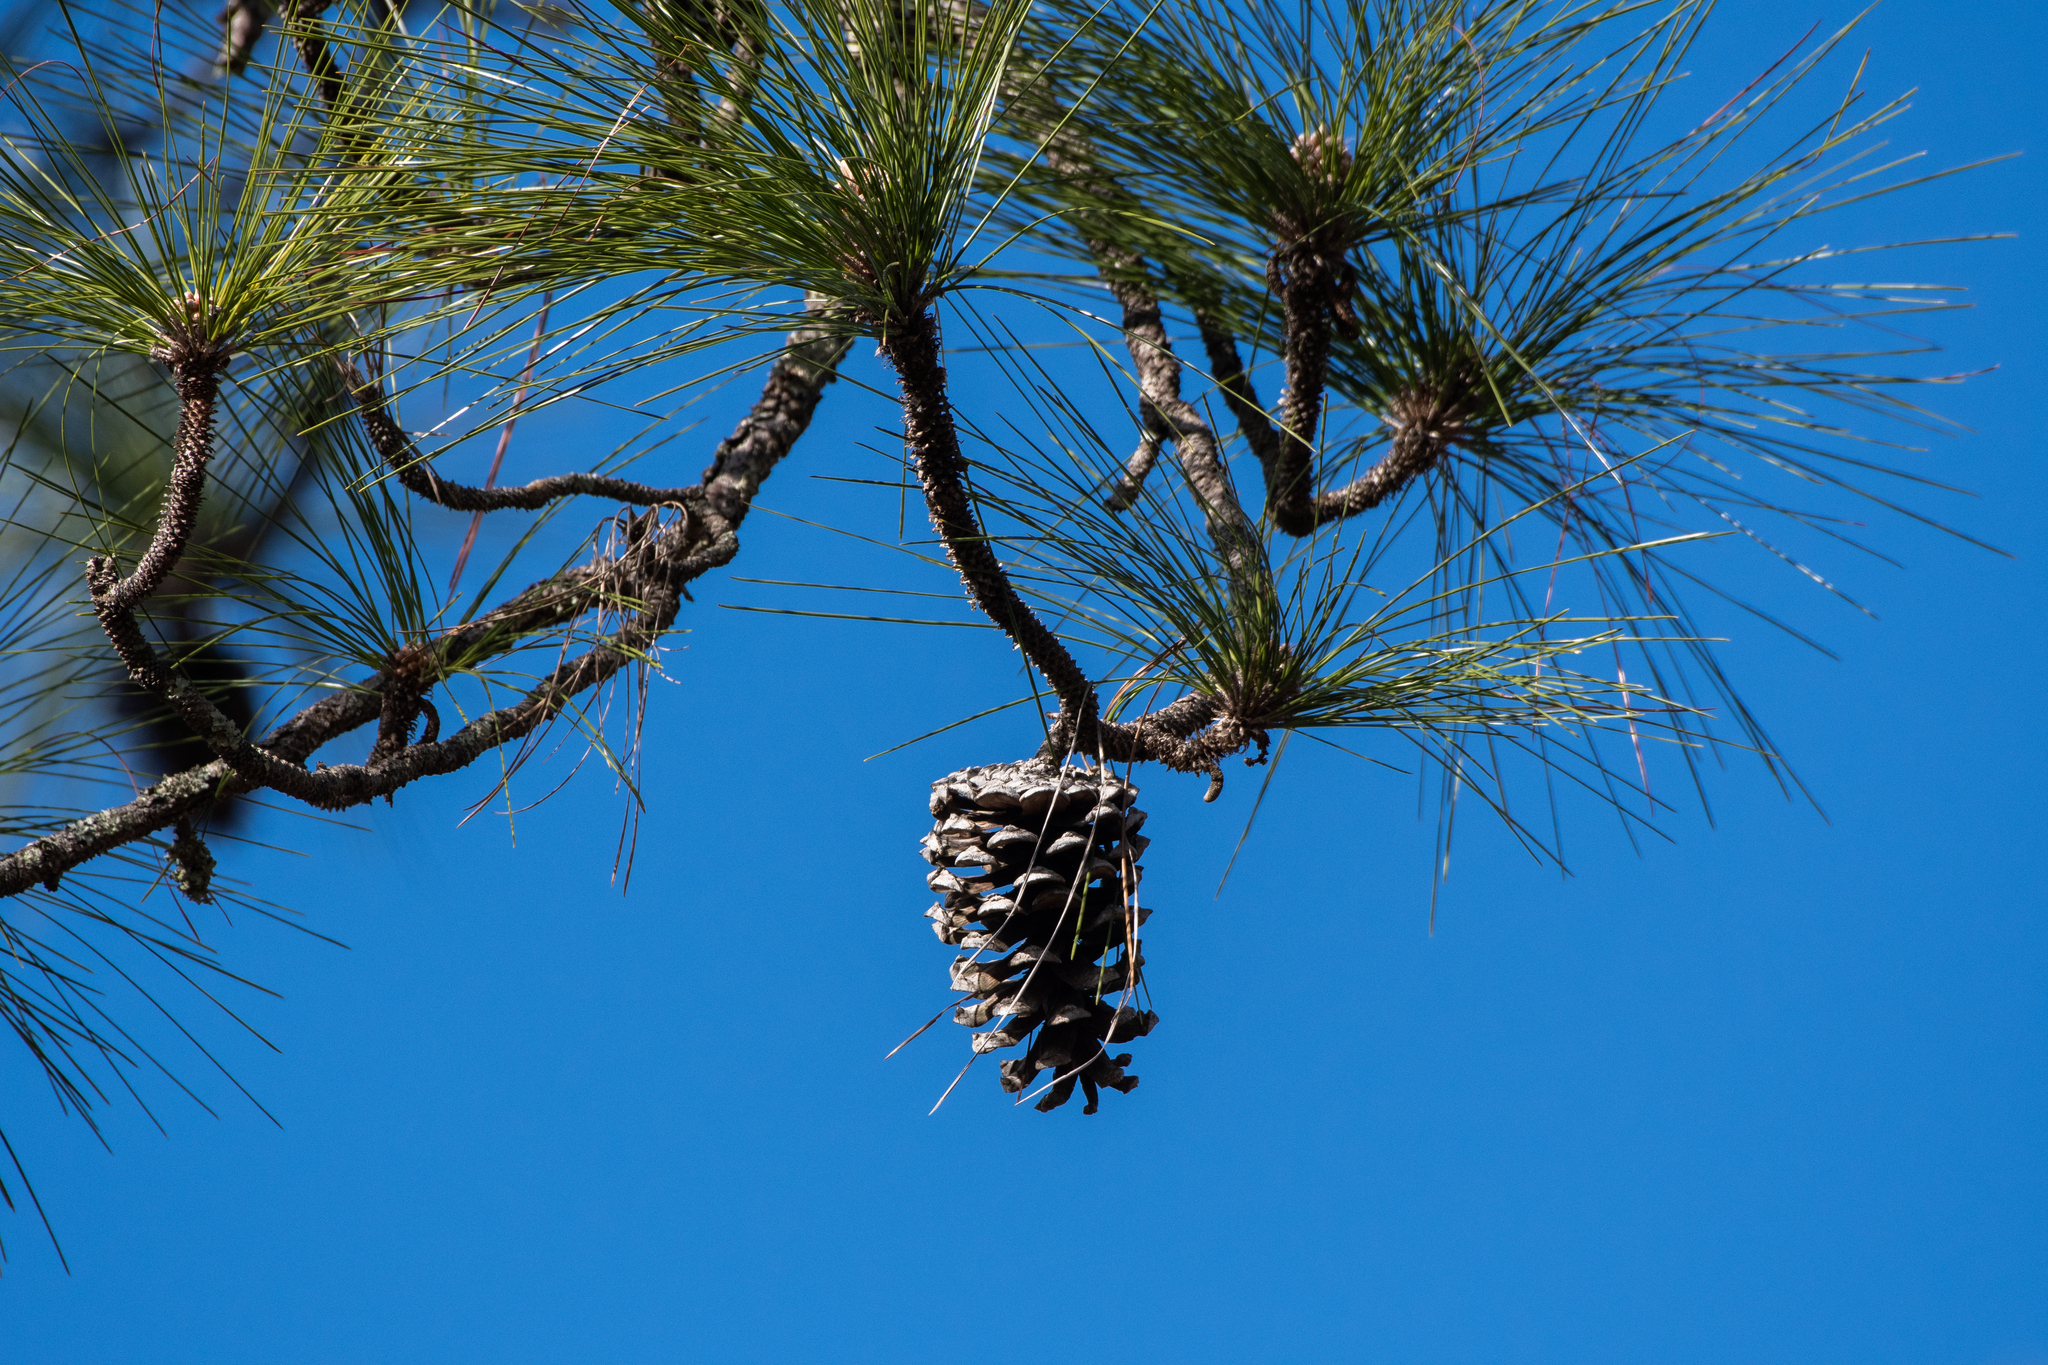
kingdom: Plantae
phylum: Tracheophyta
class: Pinopsida
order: Pinales
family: Pinaceae
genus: Pinus
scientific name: Pinus palustris
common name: Longleaf pine
